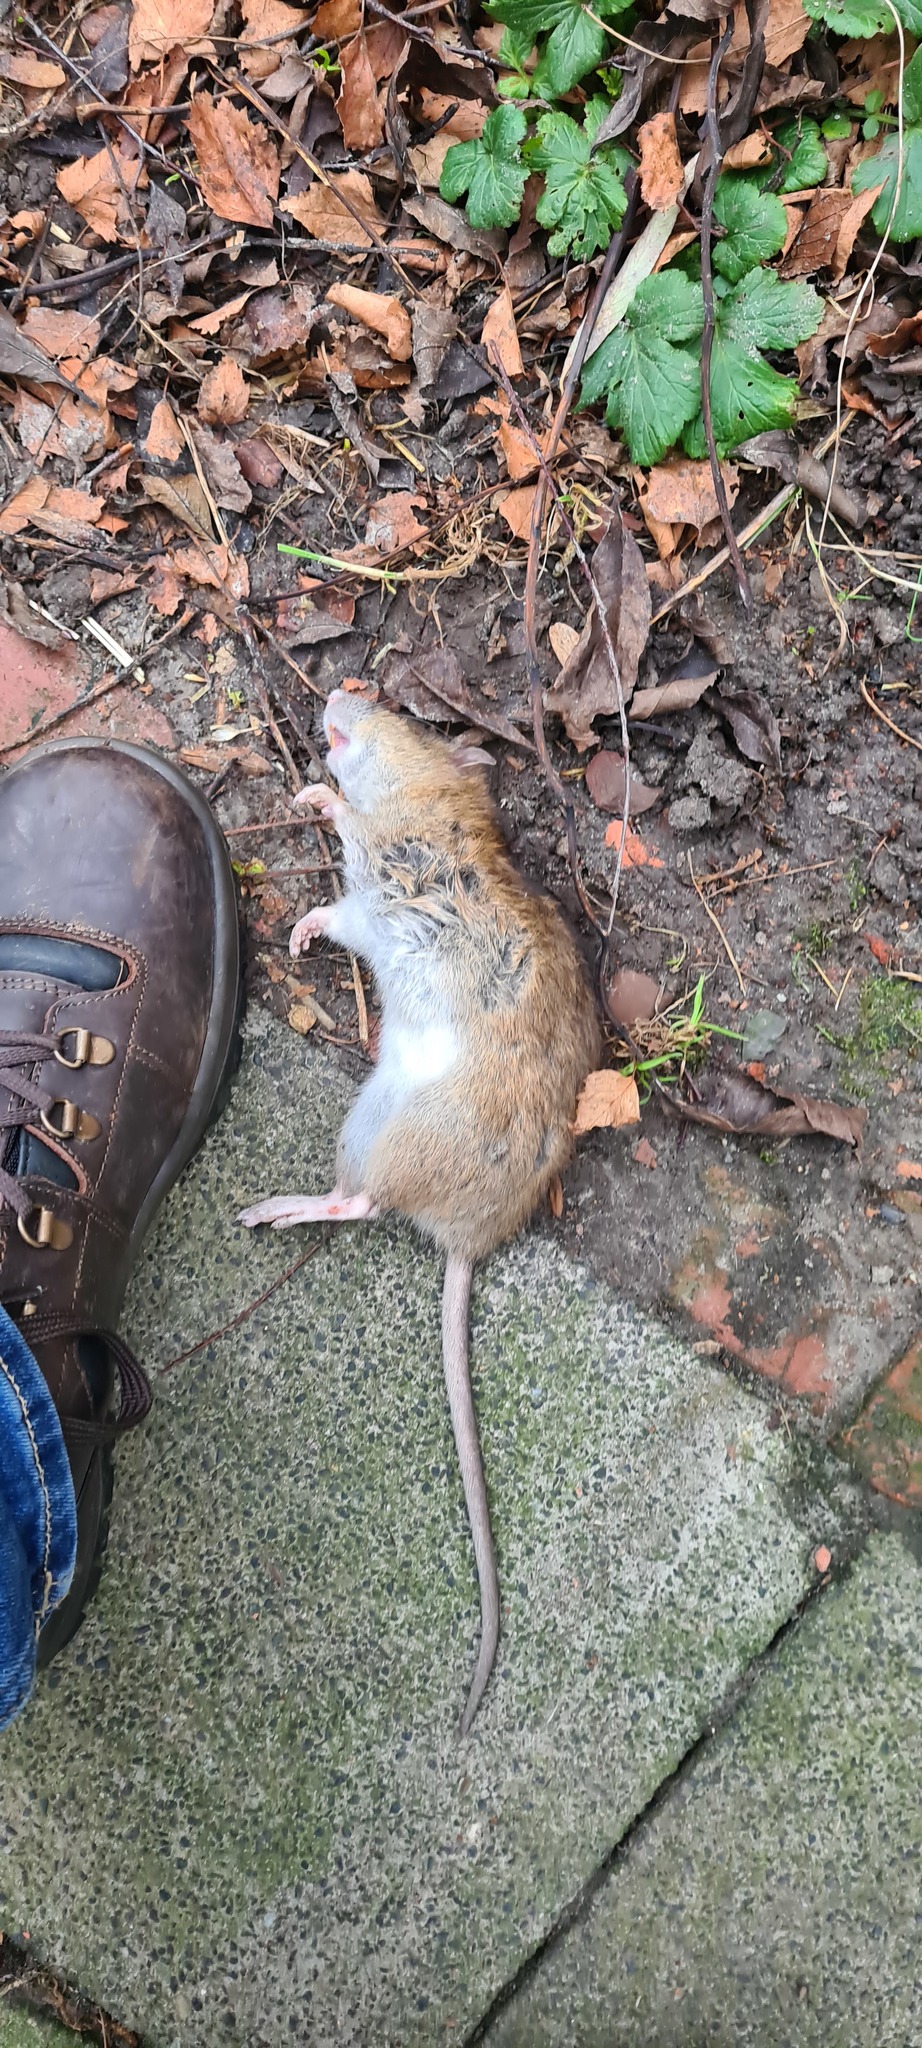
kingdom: Animalia
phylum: Chordata
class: Mammalia
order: Rodentia
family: Muridae
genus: Rattus
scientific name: Rattus norvegicus
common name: Brown rat
